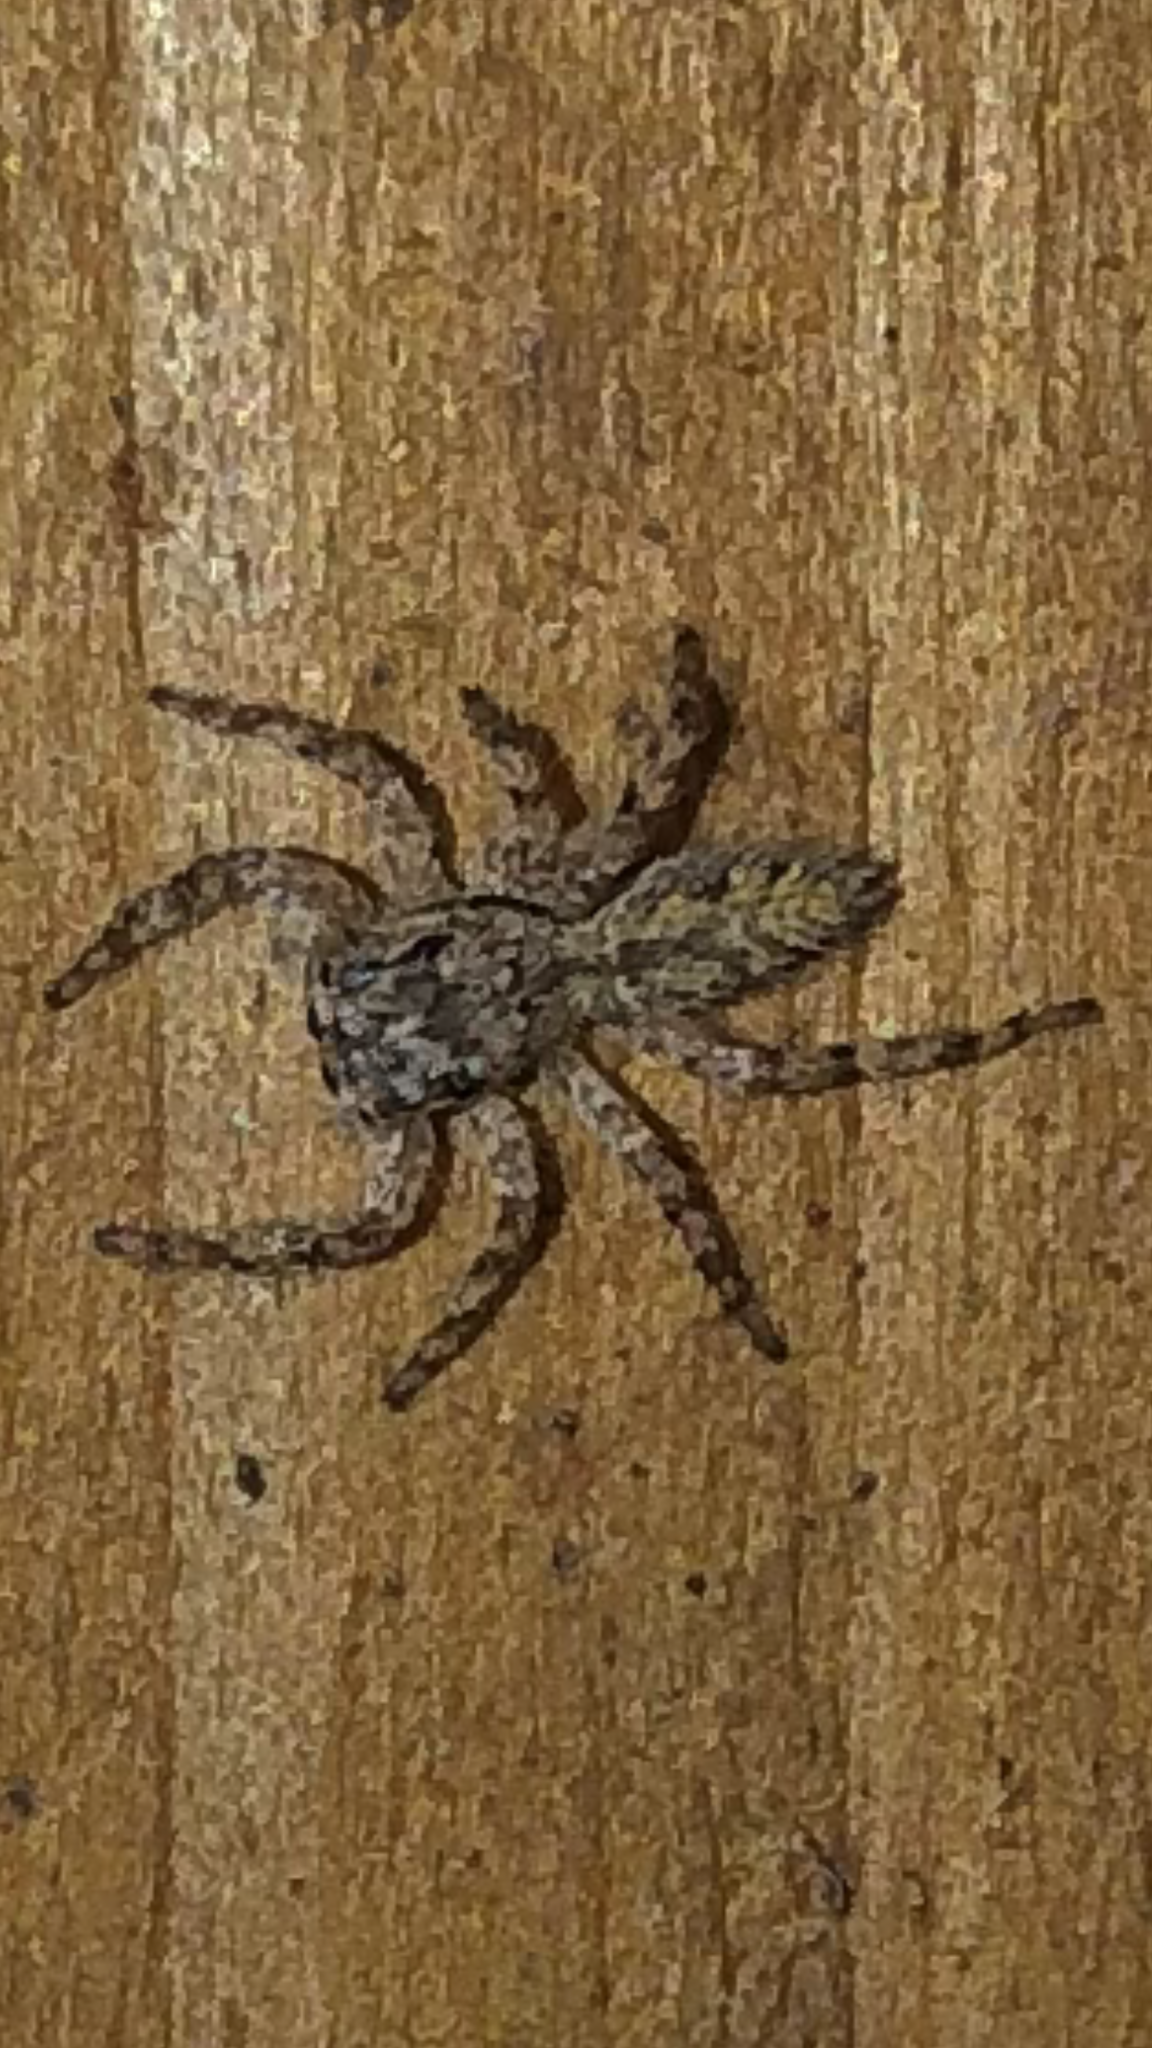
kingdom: Animalia
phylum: Arthropoda
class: Arachnida
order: Araneae
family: Salticidae
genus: Platycryptus
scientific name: Platycryptus undatus
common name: Tan jumping spider
